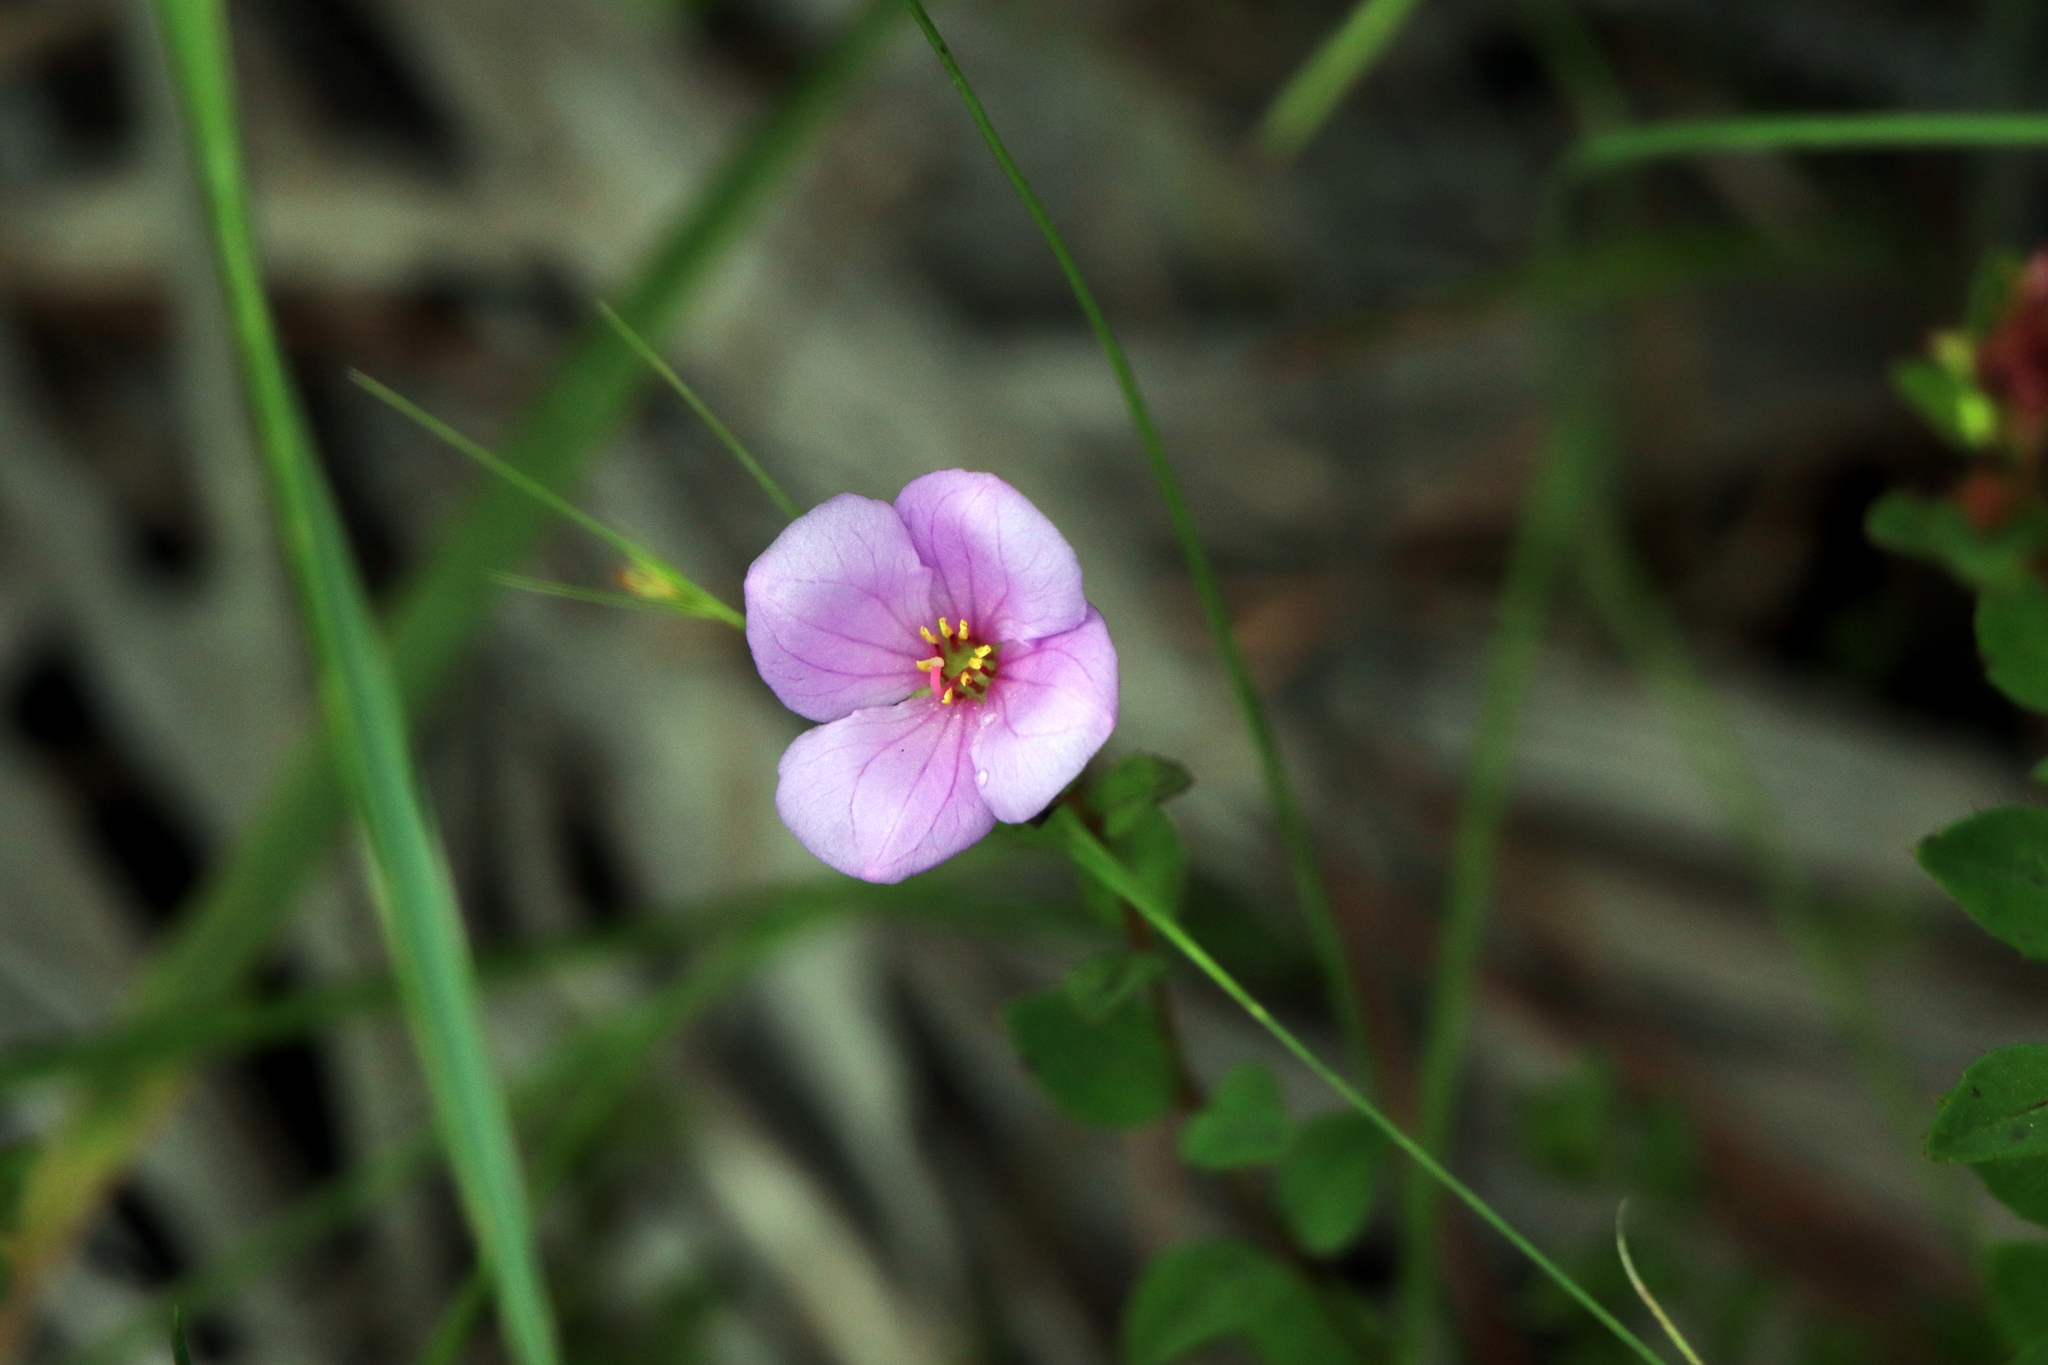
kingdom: Plantae
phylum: Tracheophyta
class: Magnoliopsida
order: Myrtales
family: Melastomataceae
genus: Rhexia
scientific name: Rhexia petiolata
